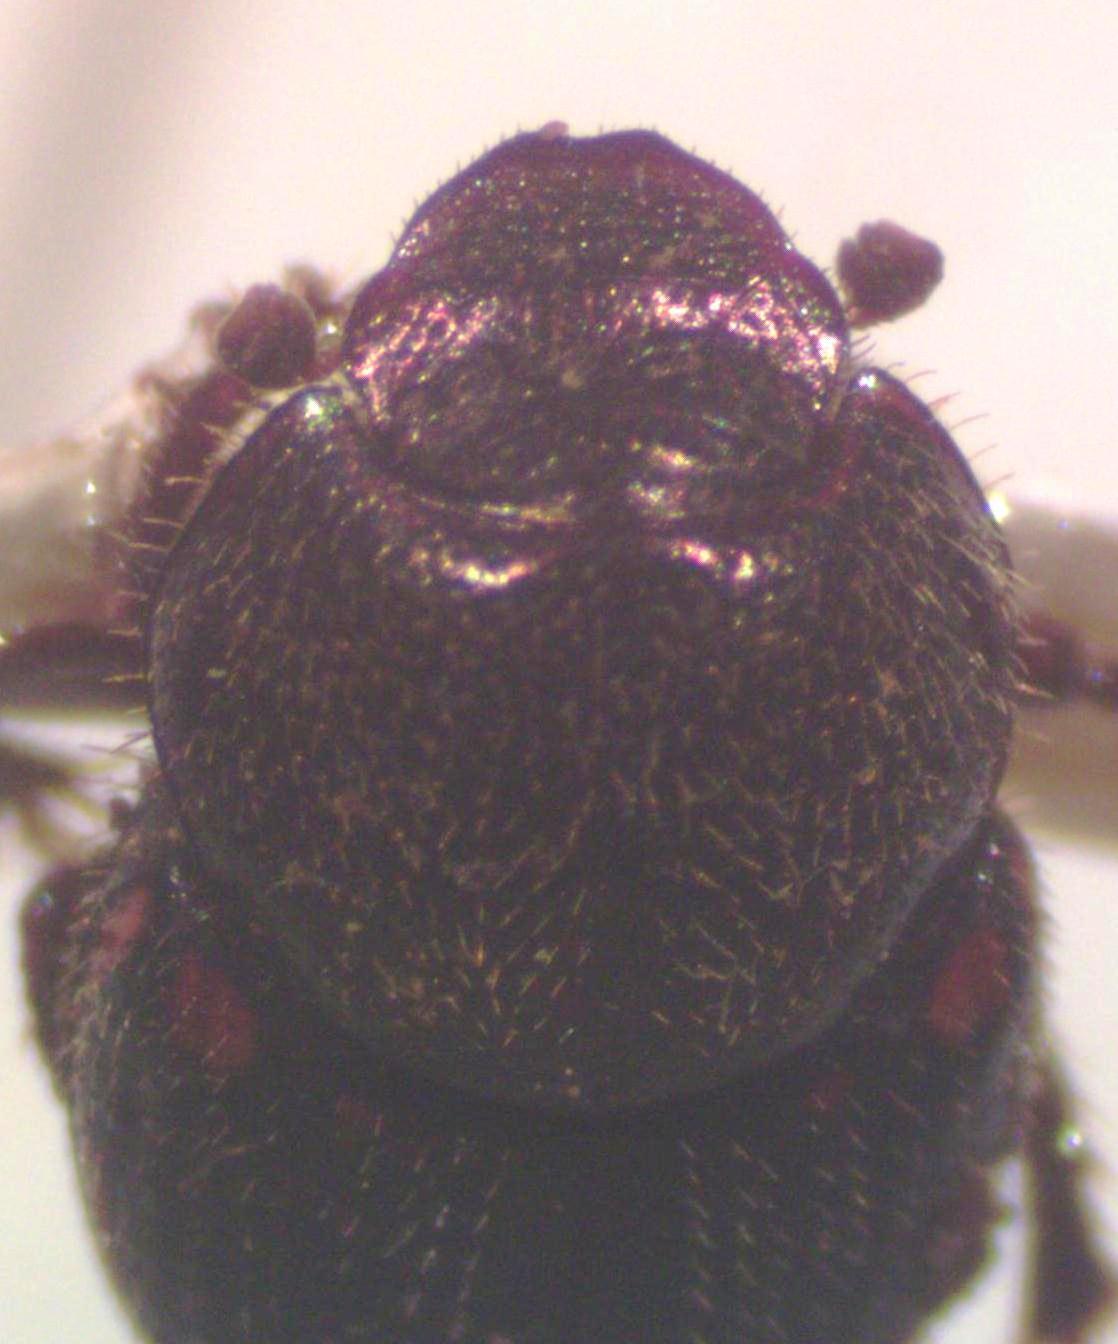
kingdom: Animalia
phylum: Arthropoda
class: Insecta
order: Coleoptera
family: Scarabaeidae
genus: Onthophagus
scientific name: Onthophagus landolti
